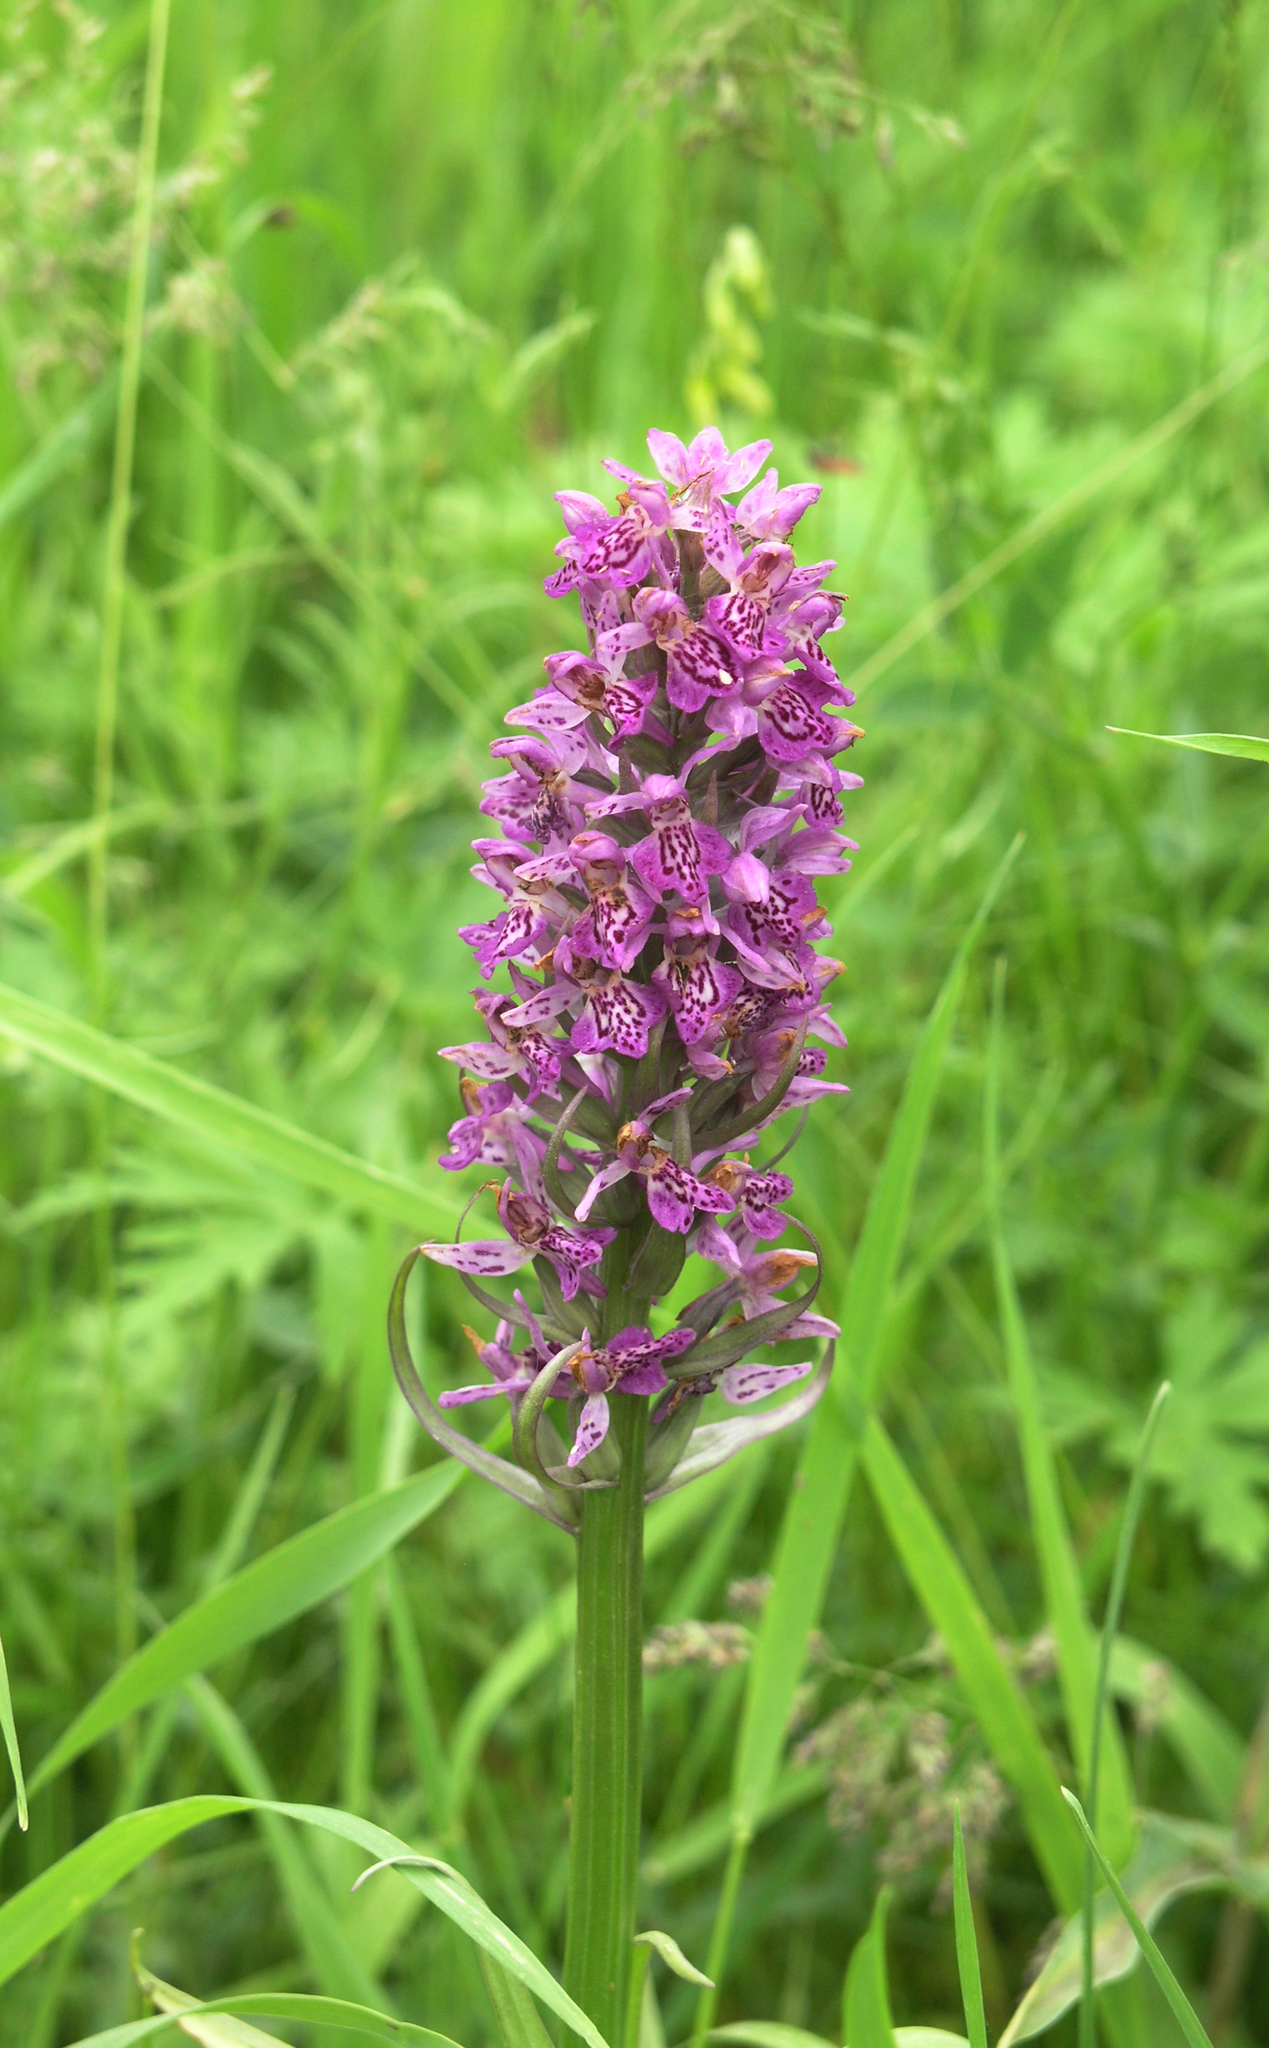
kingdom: Plantae
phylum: Tracheophyta
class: Liliopsida
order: Asparagales
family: Orchidaceae
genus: Dactylorhiza
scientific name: Dactylorhiza sibirica
